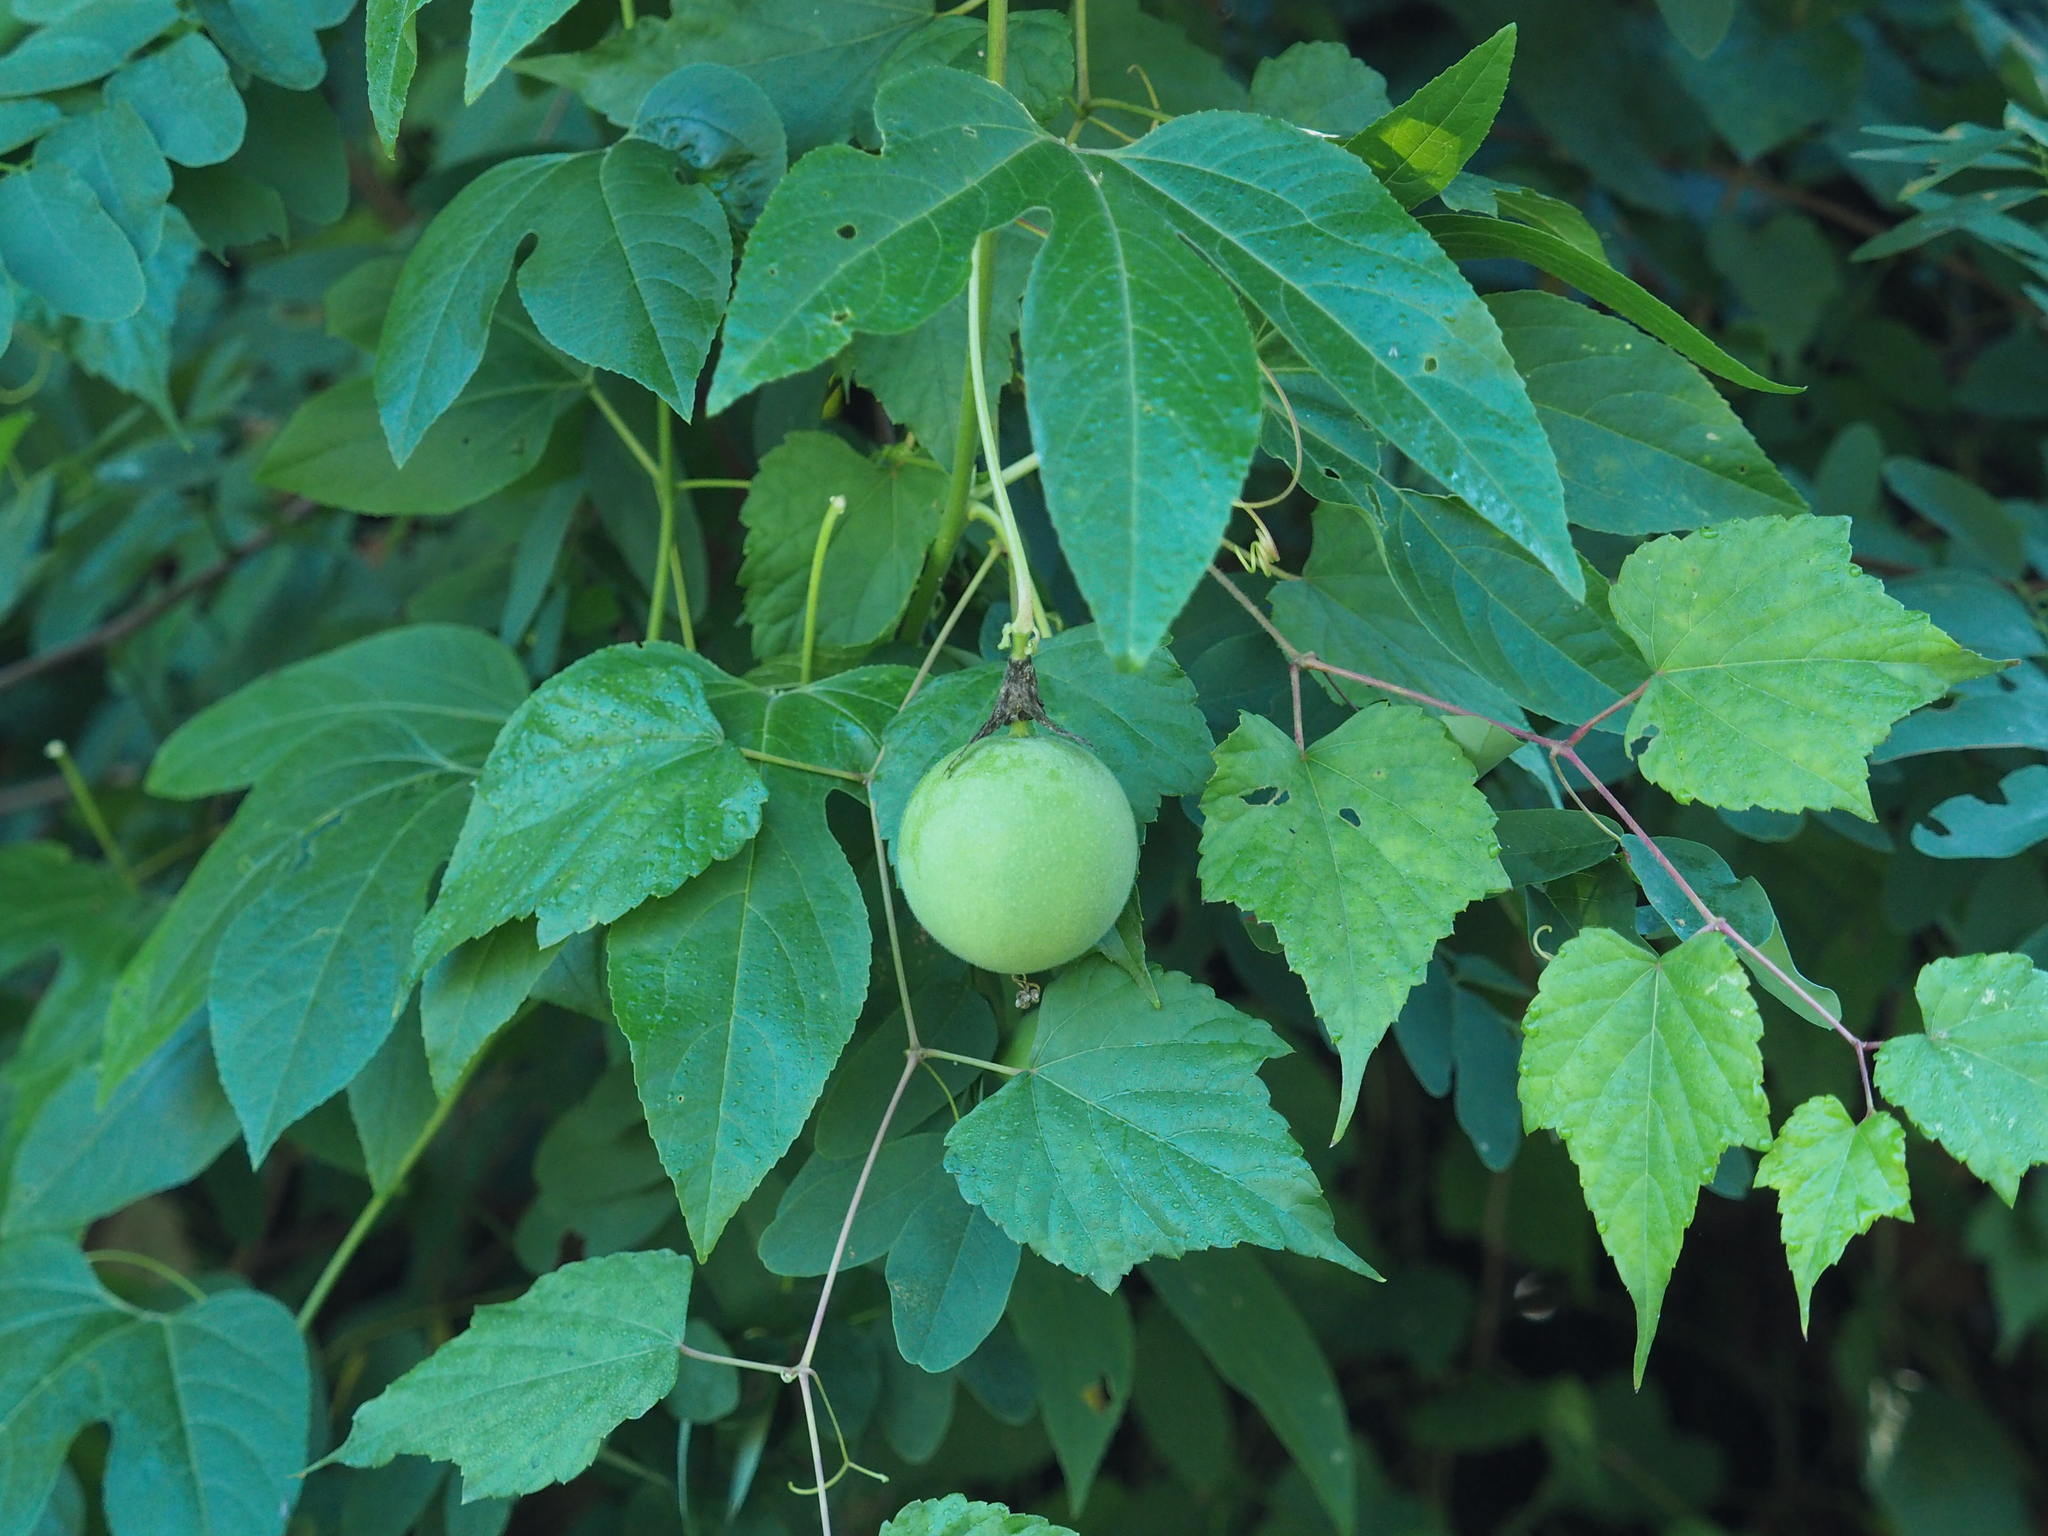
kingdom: Plantae
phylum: Tracheophyta
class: Magnoliopsida
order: Malpighiales
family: Passifloraceae
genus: Passiflora
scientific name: Passiflora incarnata
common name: Apricot-vine
